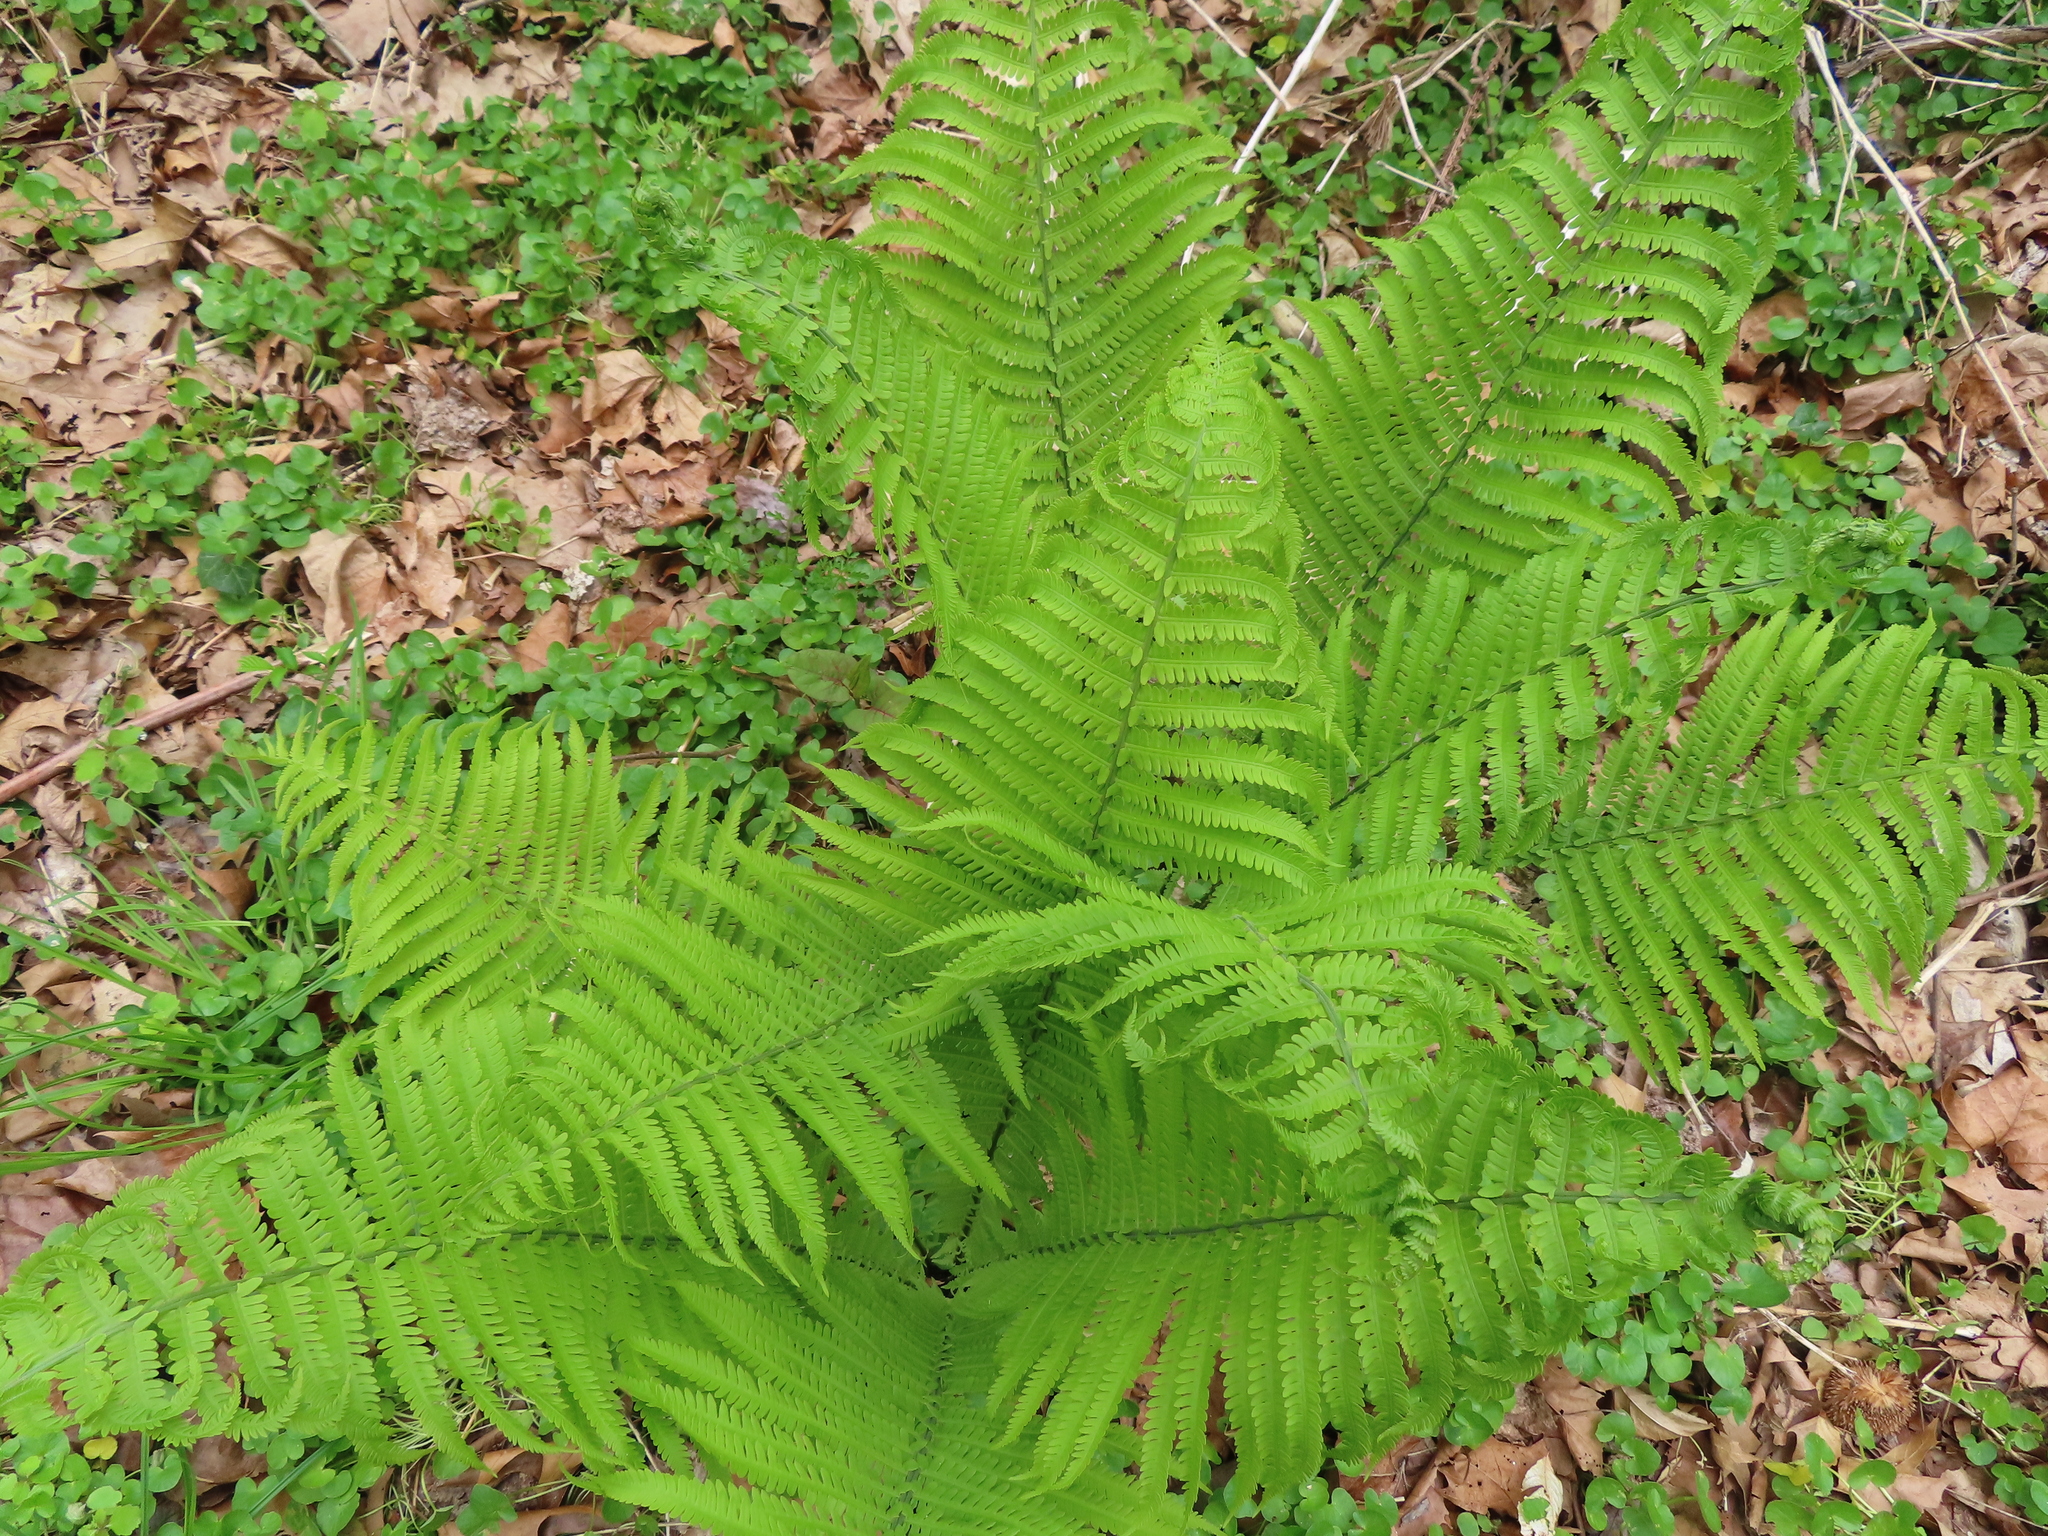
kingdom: Plantae
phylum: Tracheophyta
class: Polypodiopsida
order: Polypodiales
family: Onocleaceae
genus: Matteuccia
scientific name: Matteuccia struthiopteris
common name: Ostrich fern
